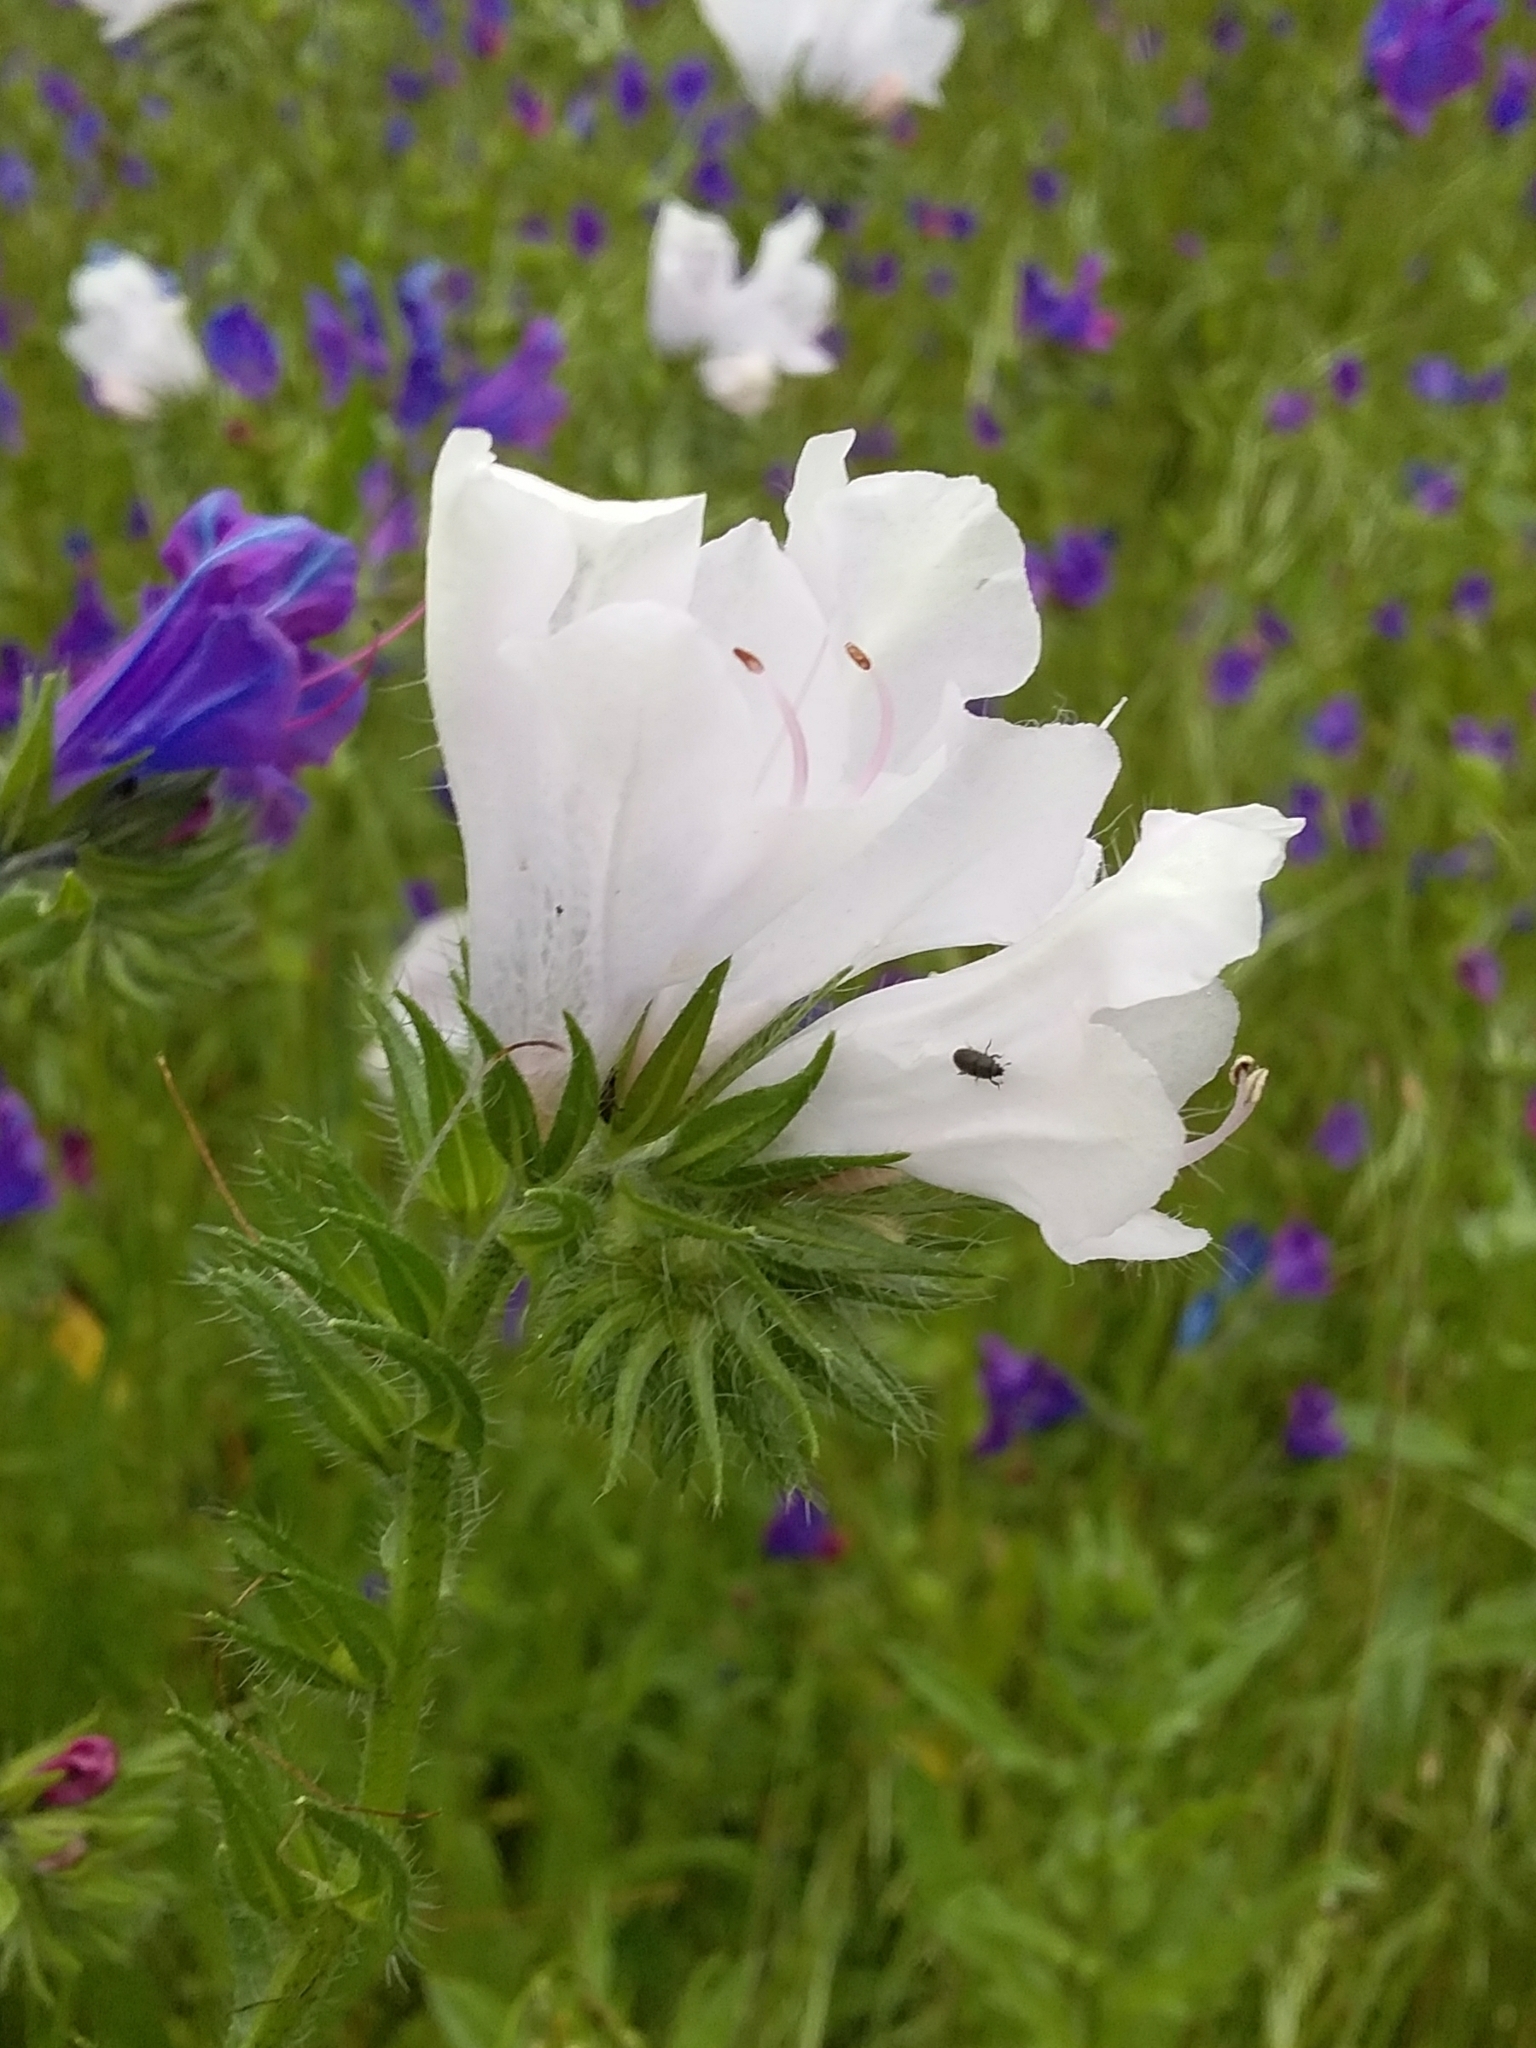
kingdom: Plantae
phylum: Tracheophyta
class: Magnoliopsida
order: Boraginales
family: Boraginaceae
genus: Echium
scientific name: Echium plantagineum
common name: Purple viper's-bugloss
